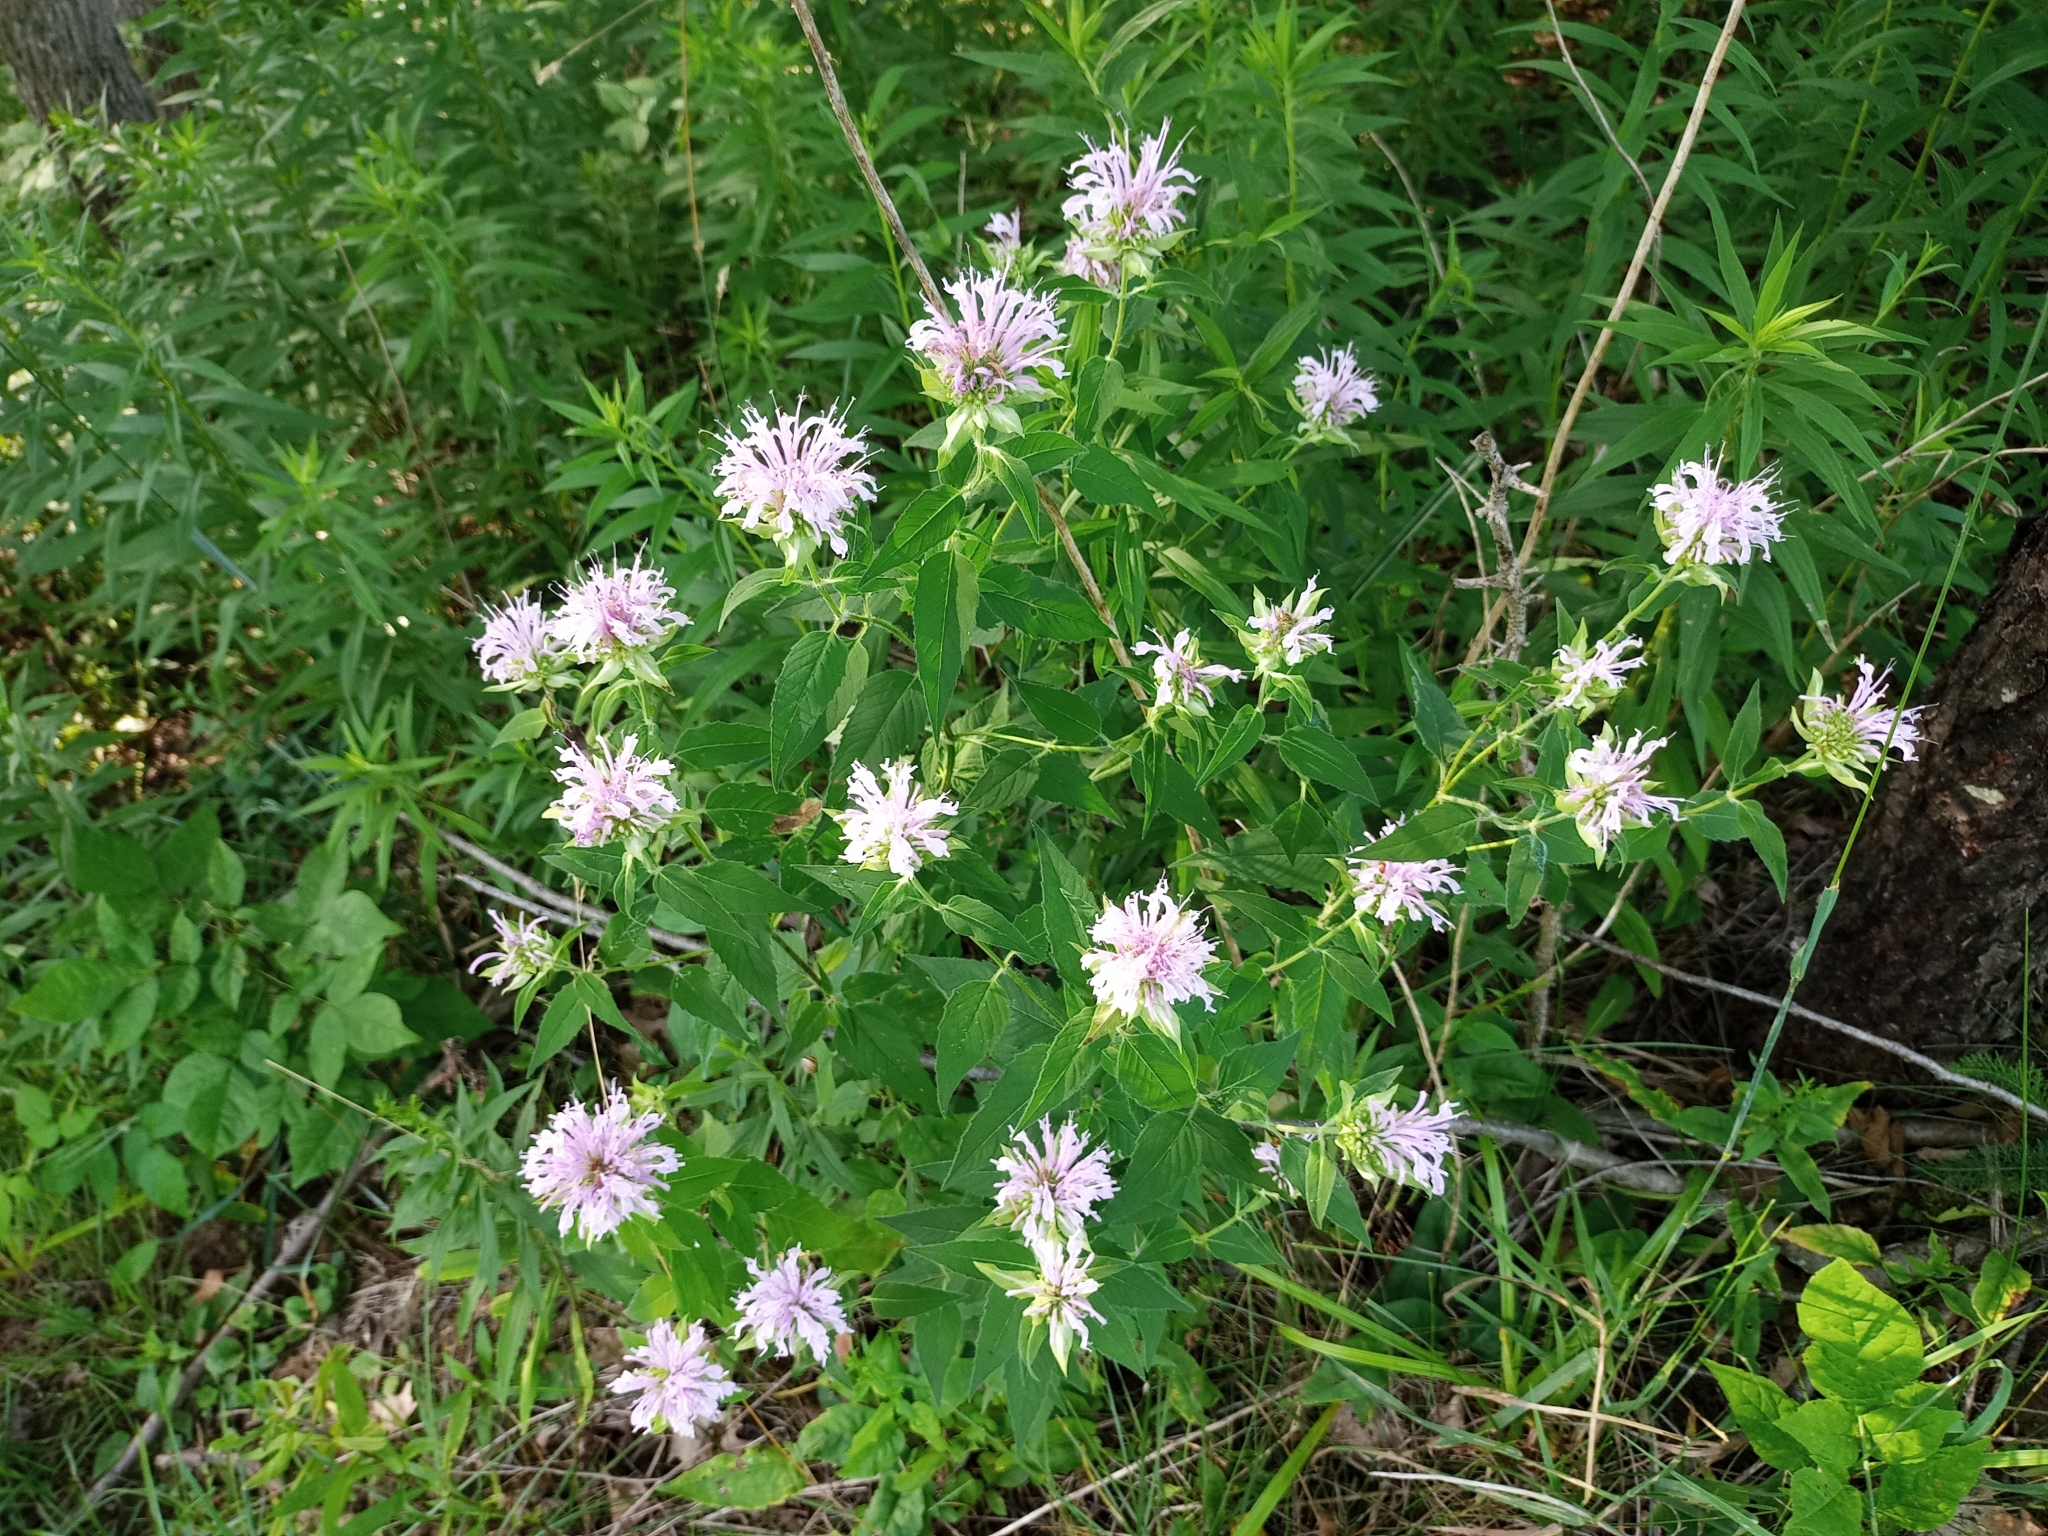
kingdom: Plantae
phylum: Tracheophyta
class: Magnoliopsida
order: Lamiales
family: Lamiaceae
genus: Monarda
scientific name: Monarda fistulosa
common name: Purple beebalm
